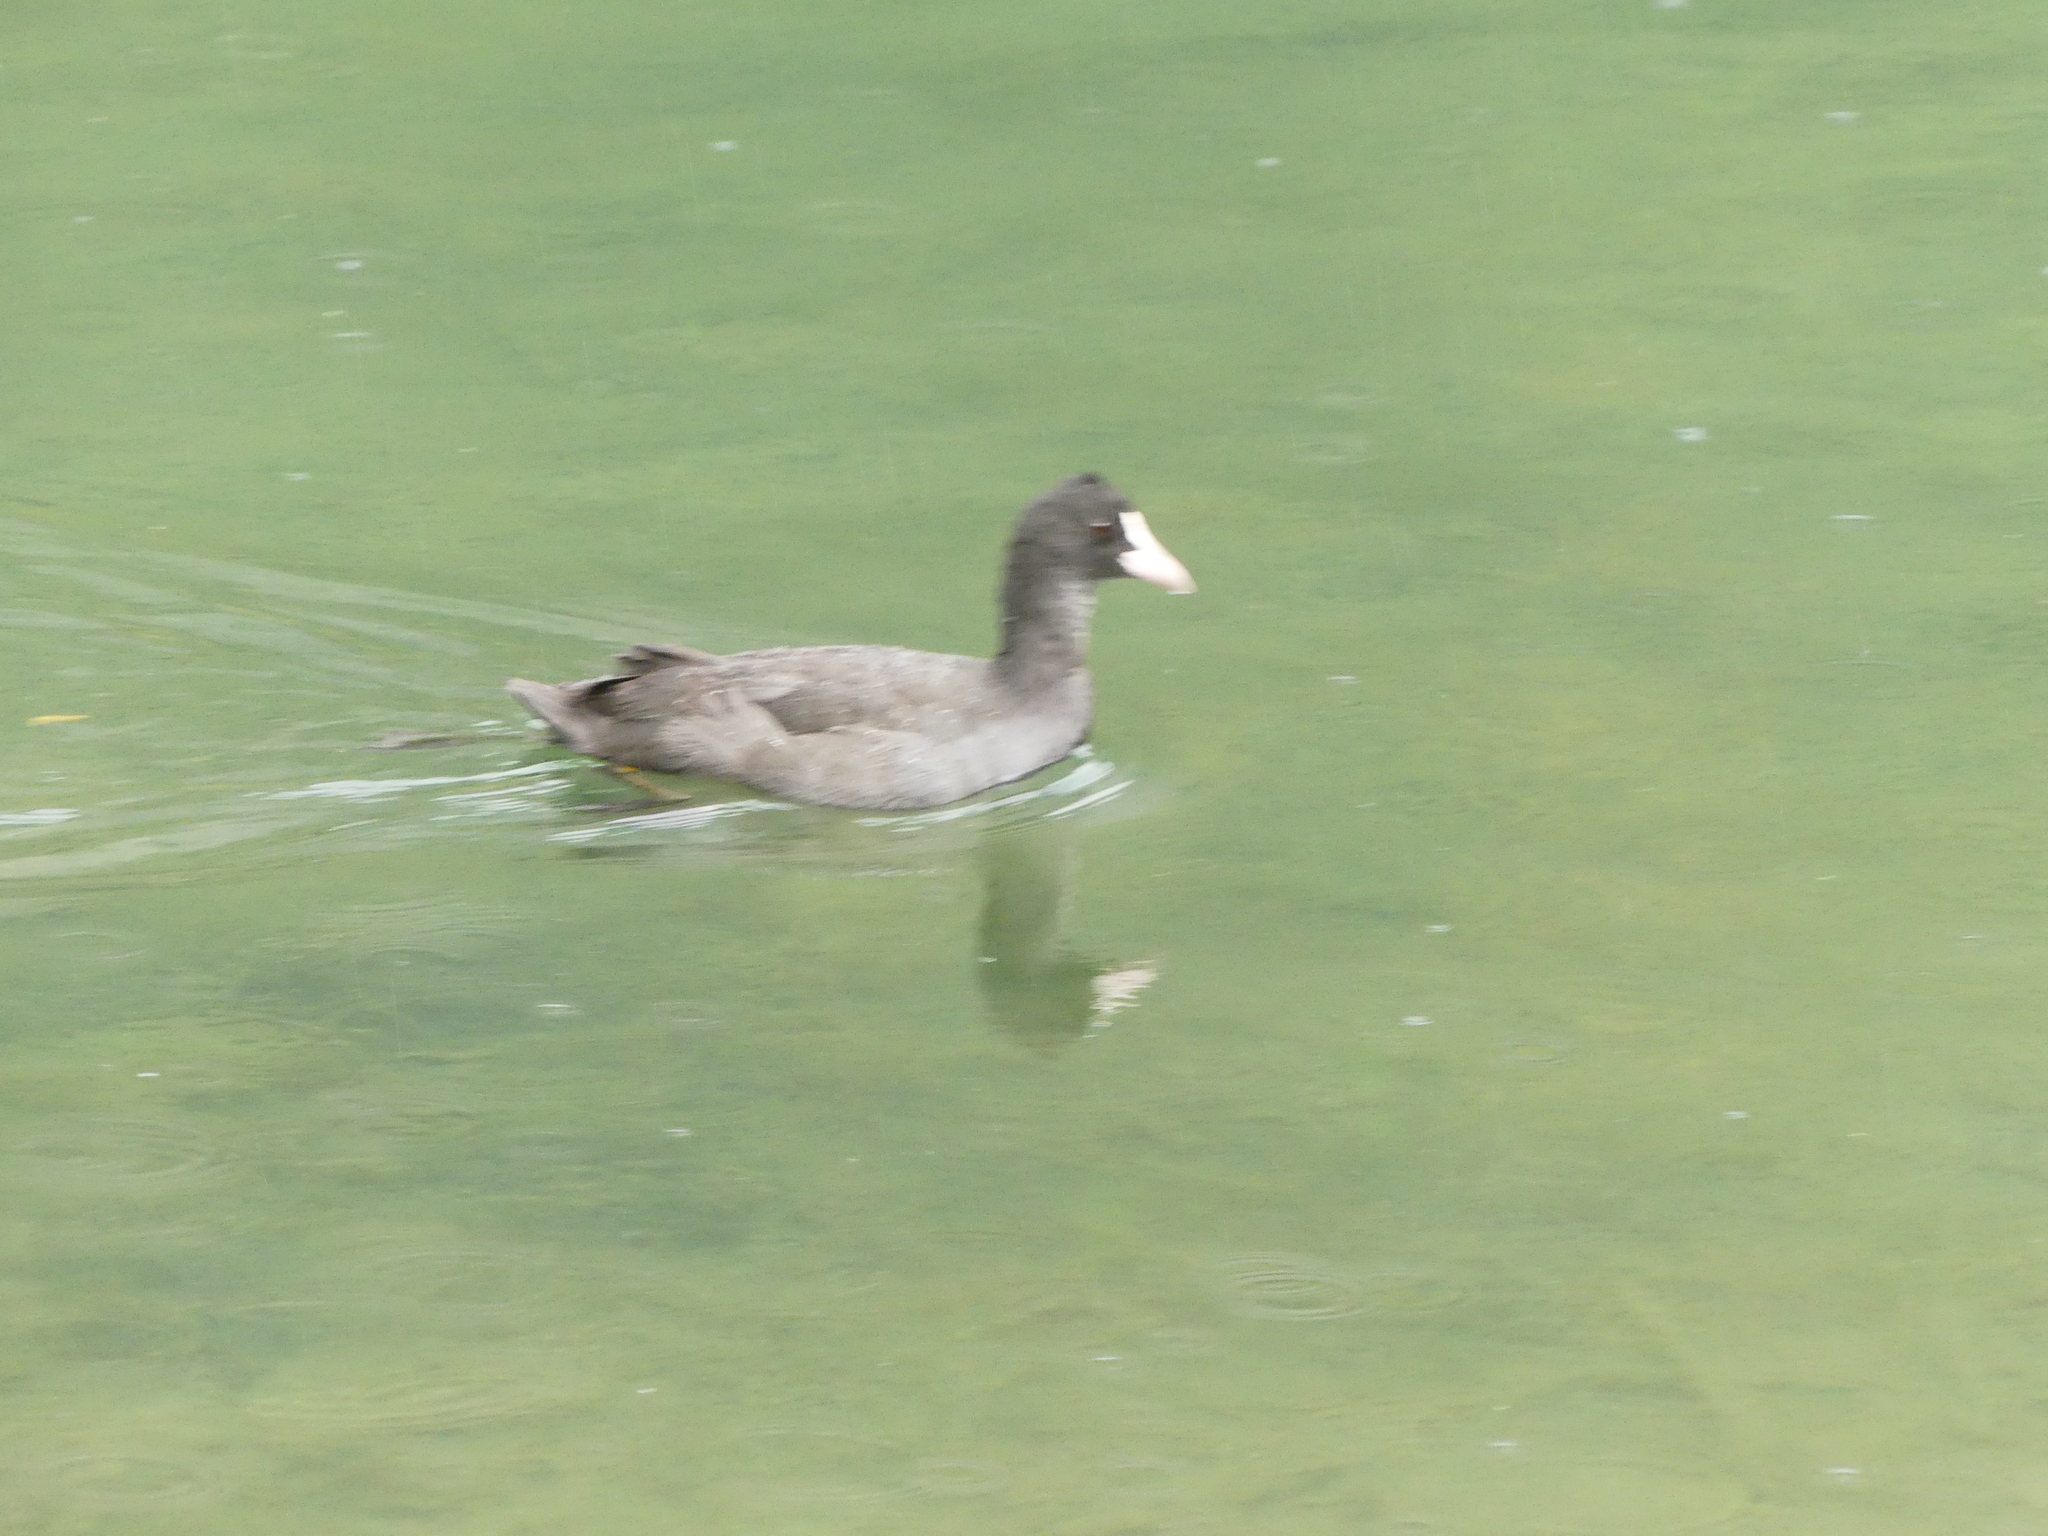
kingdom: Animalia
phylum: Chordata
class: Aves
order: Gruiformes
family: Rallidae
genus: Fulica
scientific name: Fulica atra
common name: Eurasian coot
